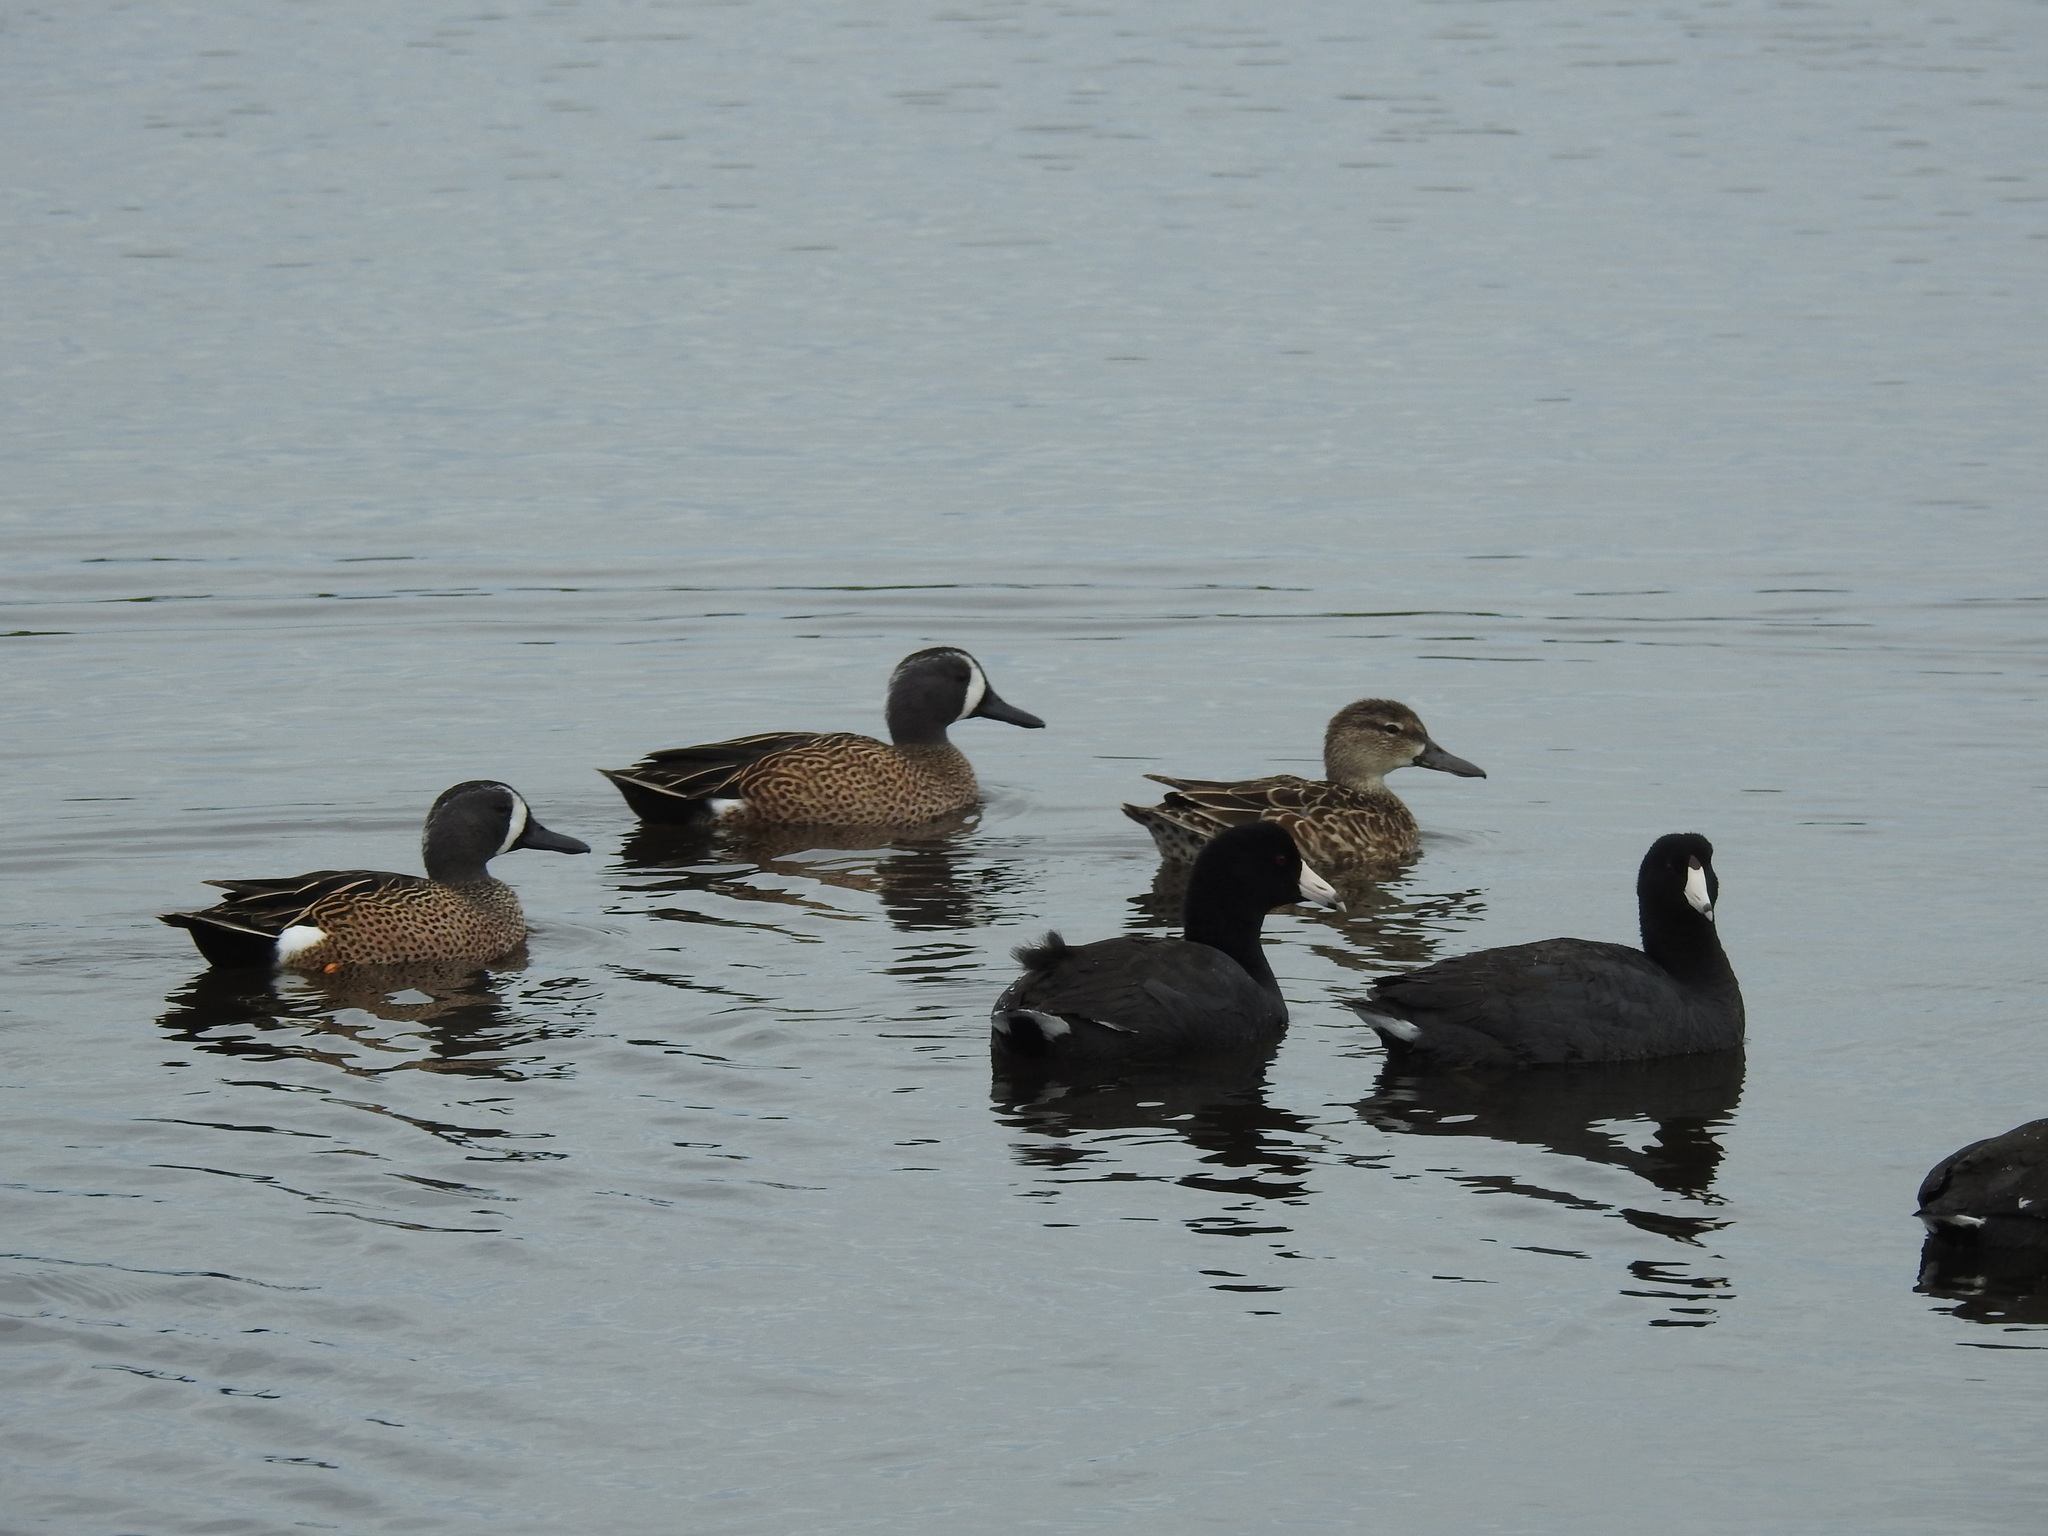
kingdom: Animalia
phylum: Chordata
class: Aves
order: Anseriformes
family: Anatidae
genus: Spatula
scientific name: Spatula discors
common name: Blue-winged teal
